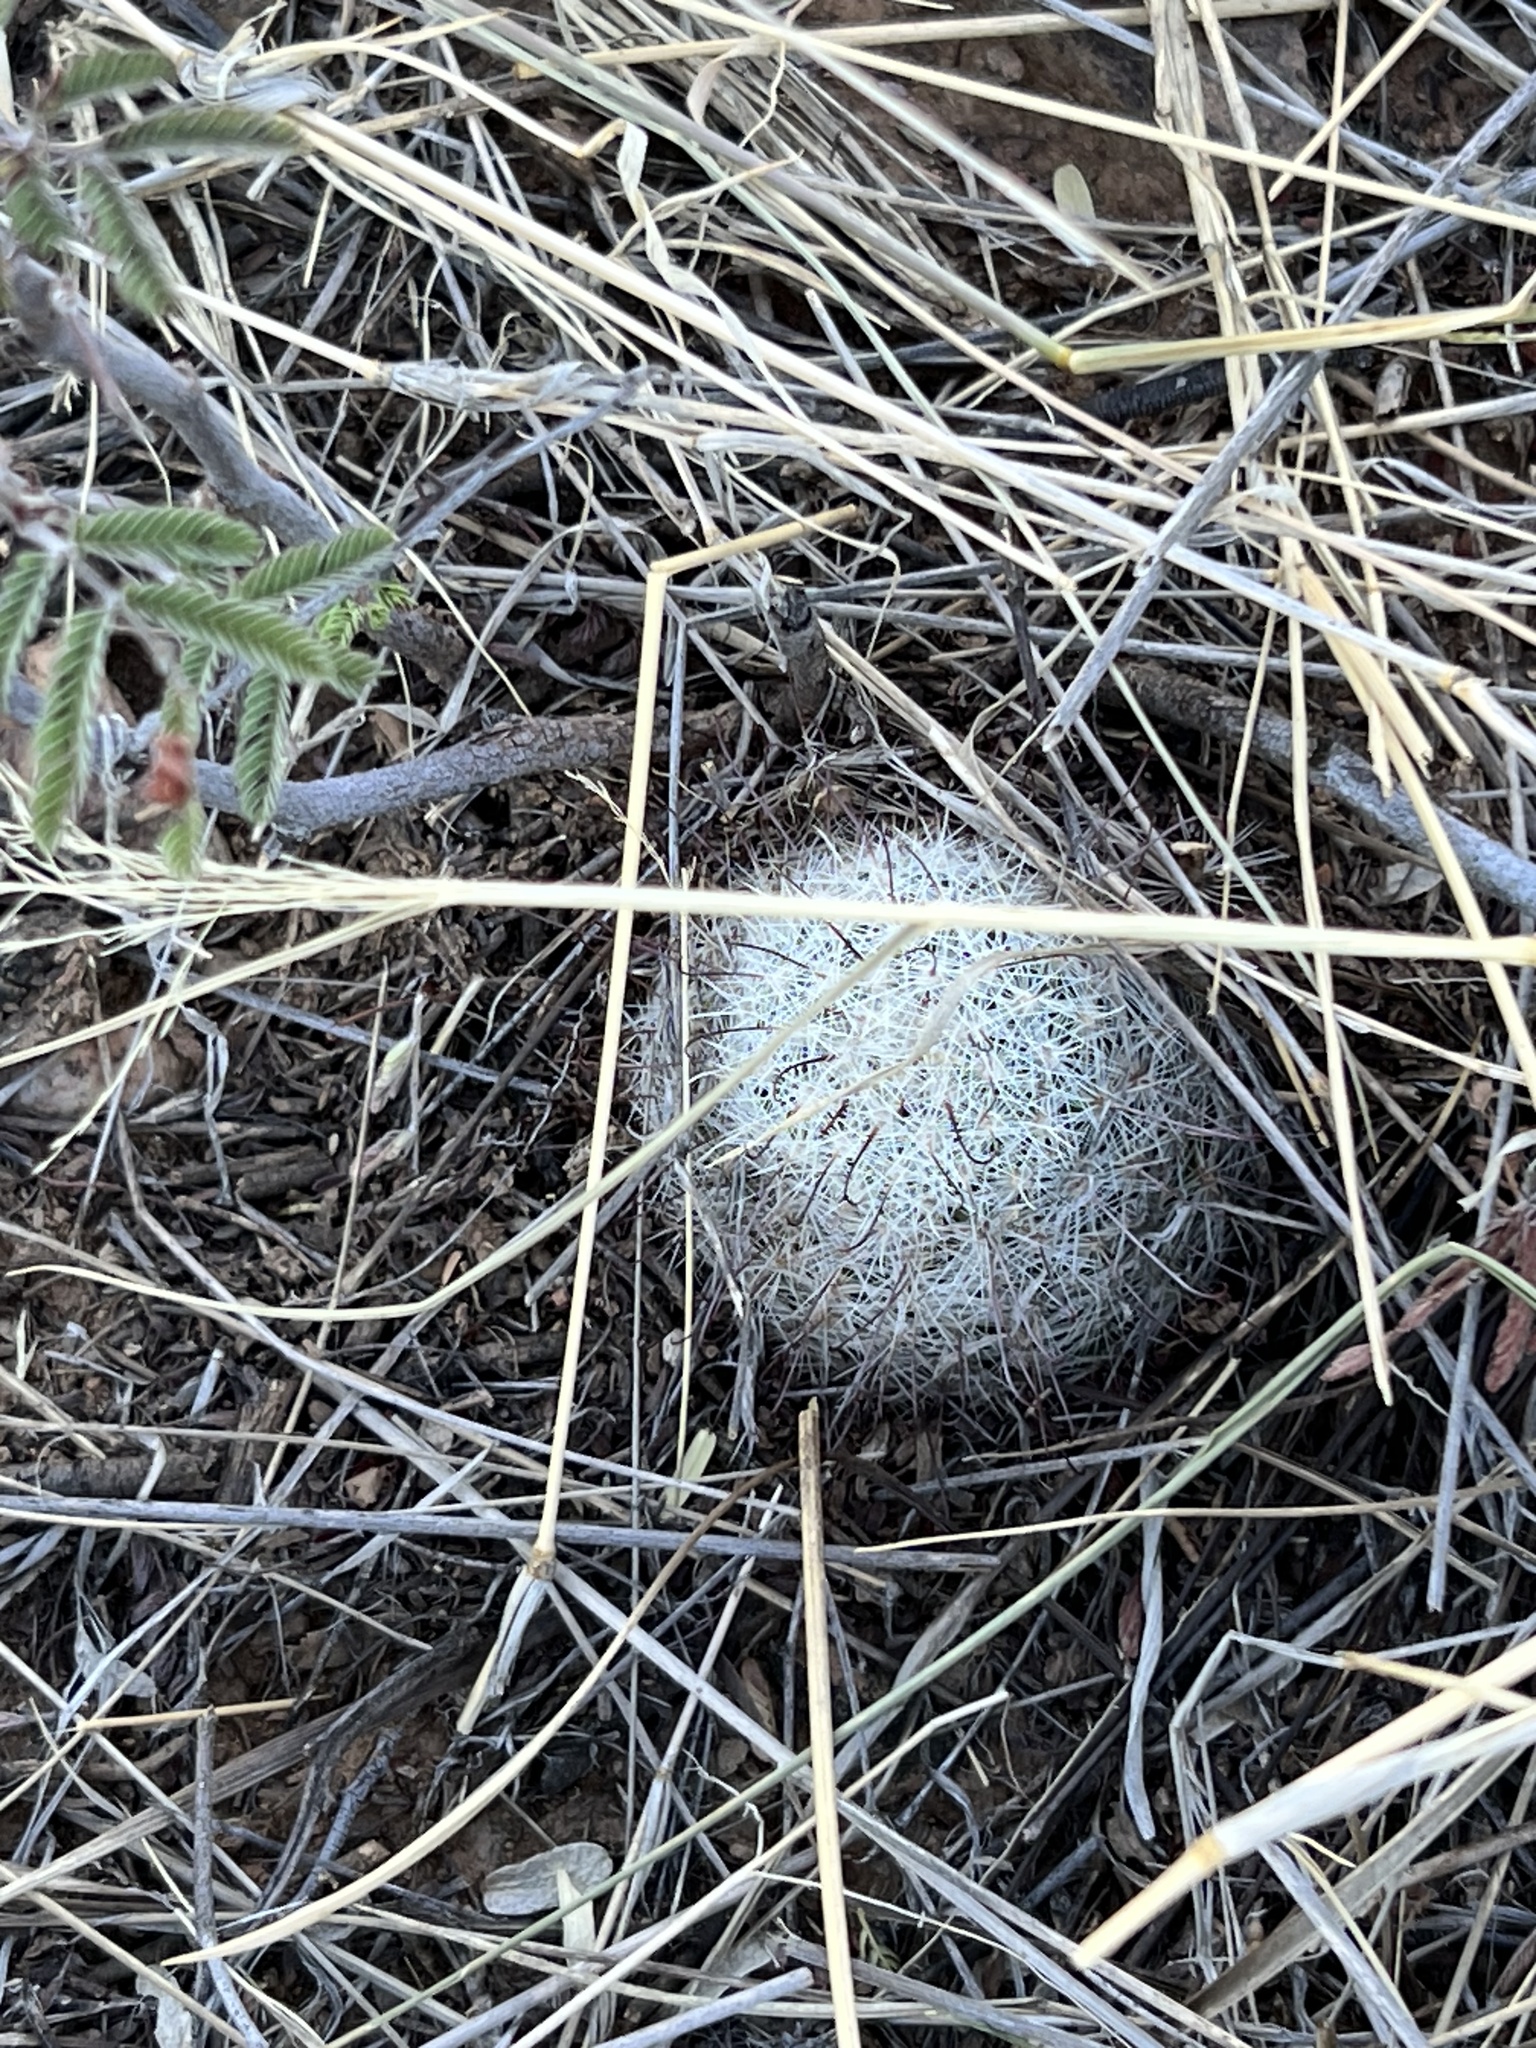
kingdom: Plantae
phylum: Tracheophyta
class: Magnoliopsida
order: Caryophyllales
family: Cactaceae
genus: Cochemiea
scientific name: Cochemiea grahamii
